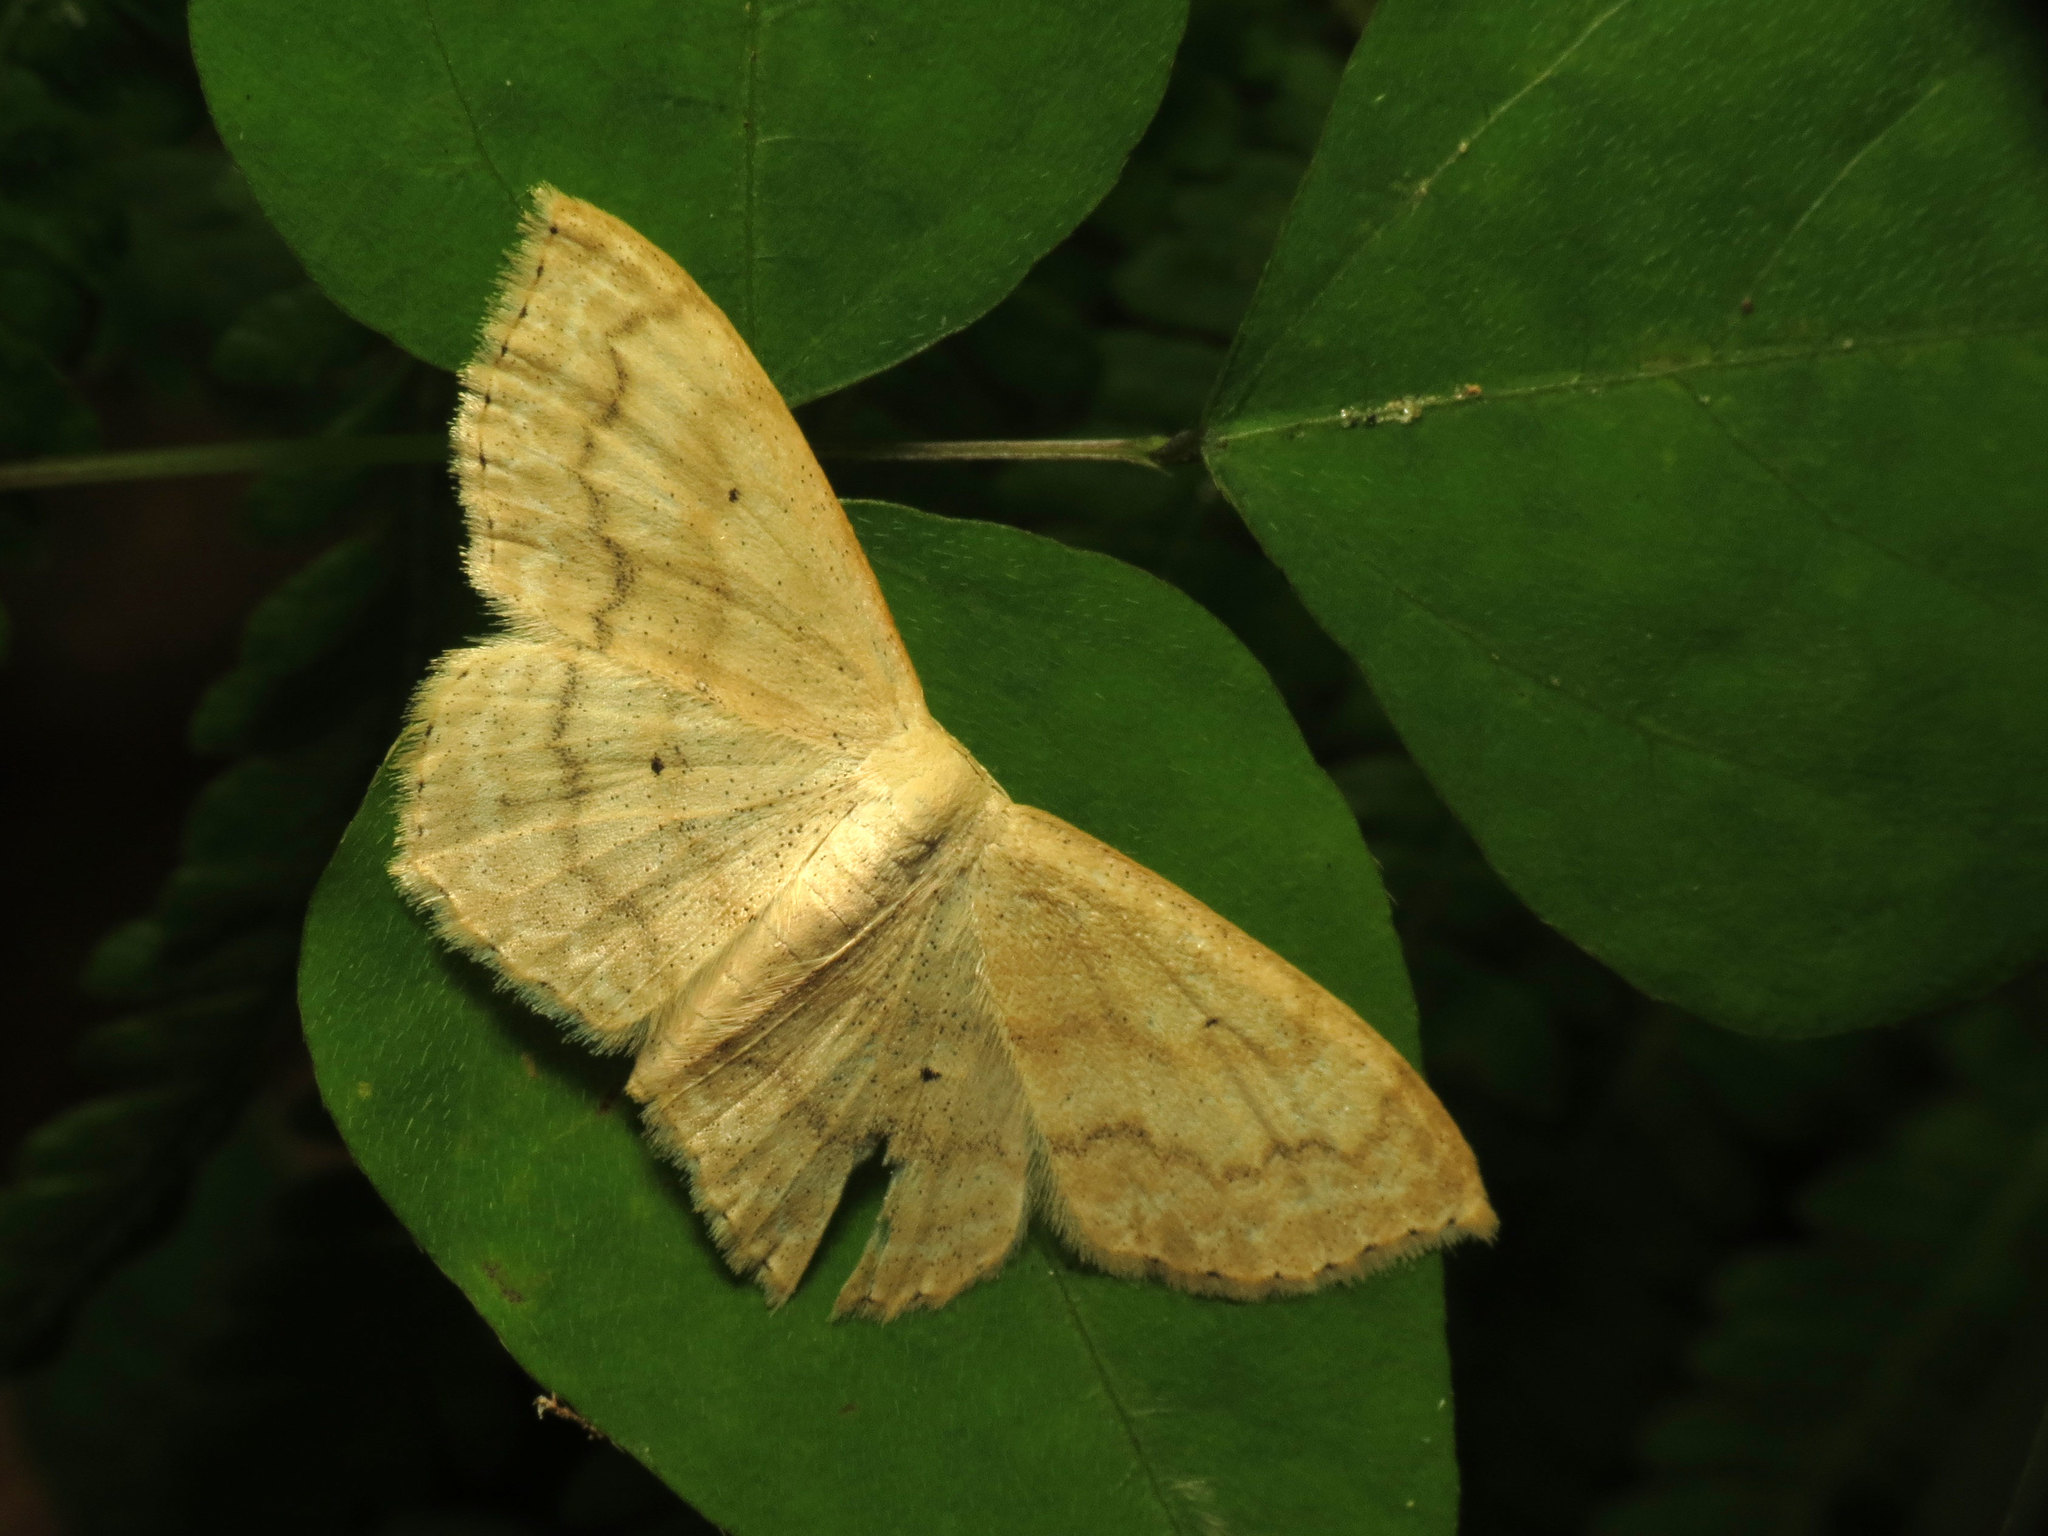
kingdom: Animalia
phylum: Arthropoda
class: Insecta
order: Lepidoptera
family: Geometridae
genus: Scopula
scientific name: Scopula limboundata
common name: Large lace border
